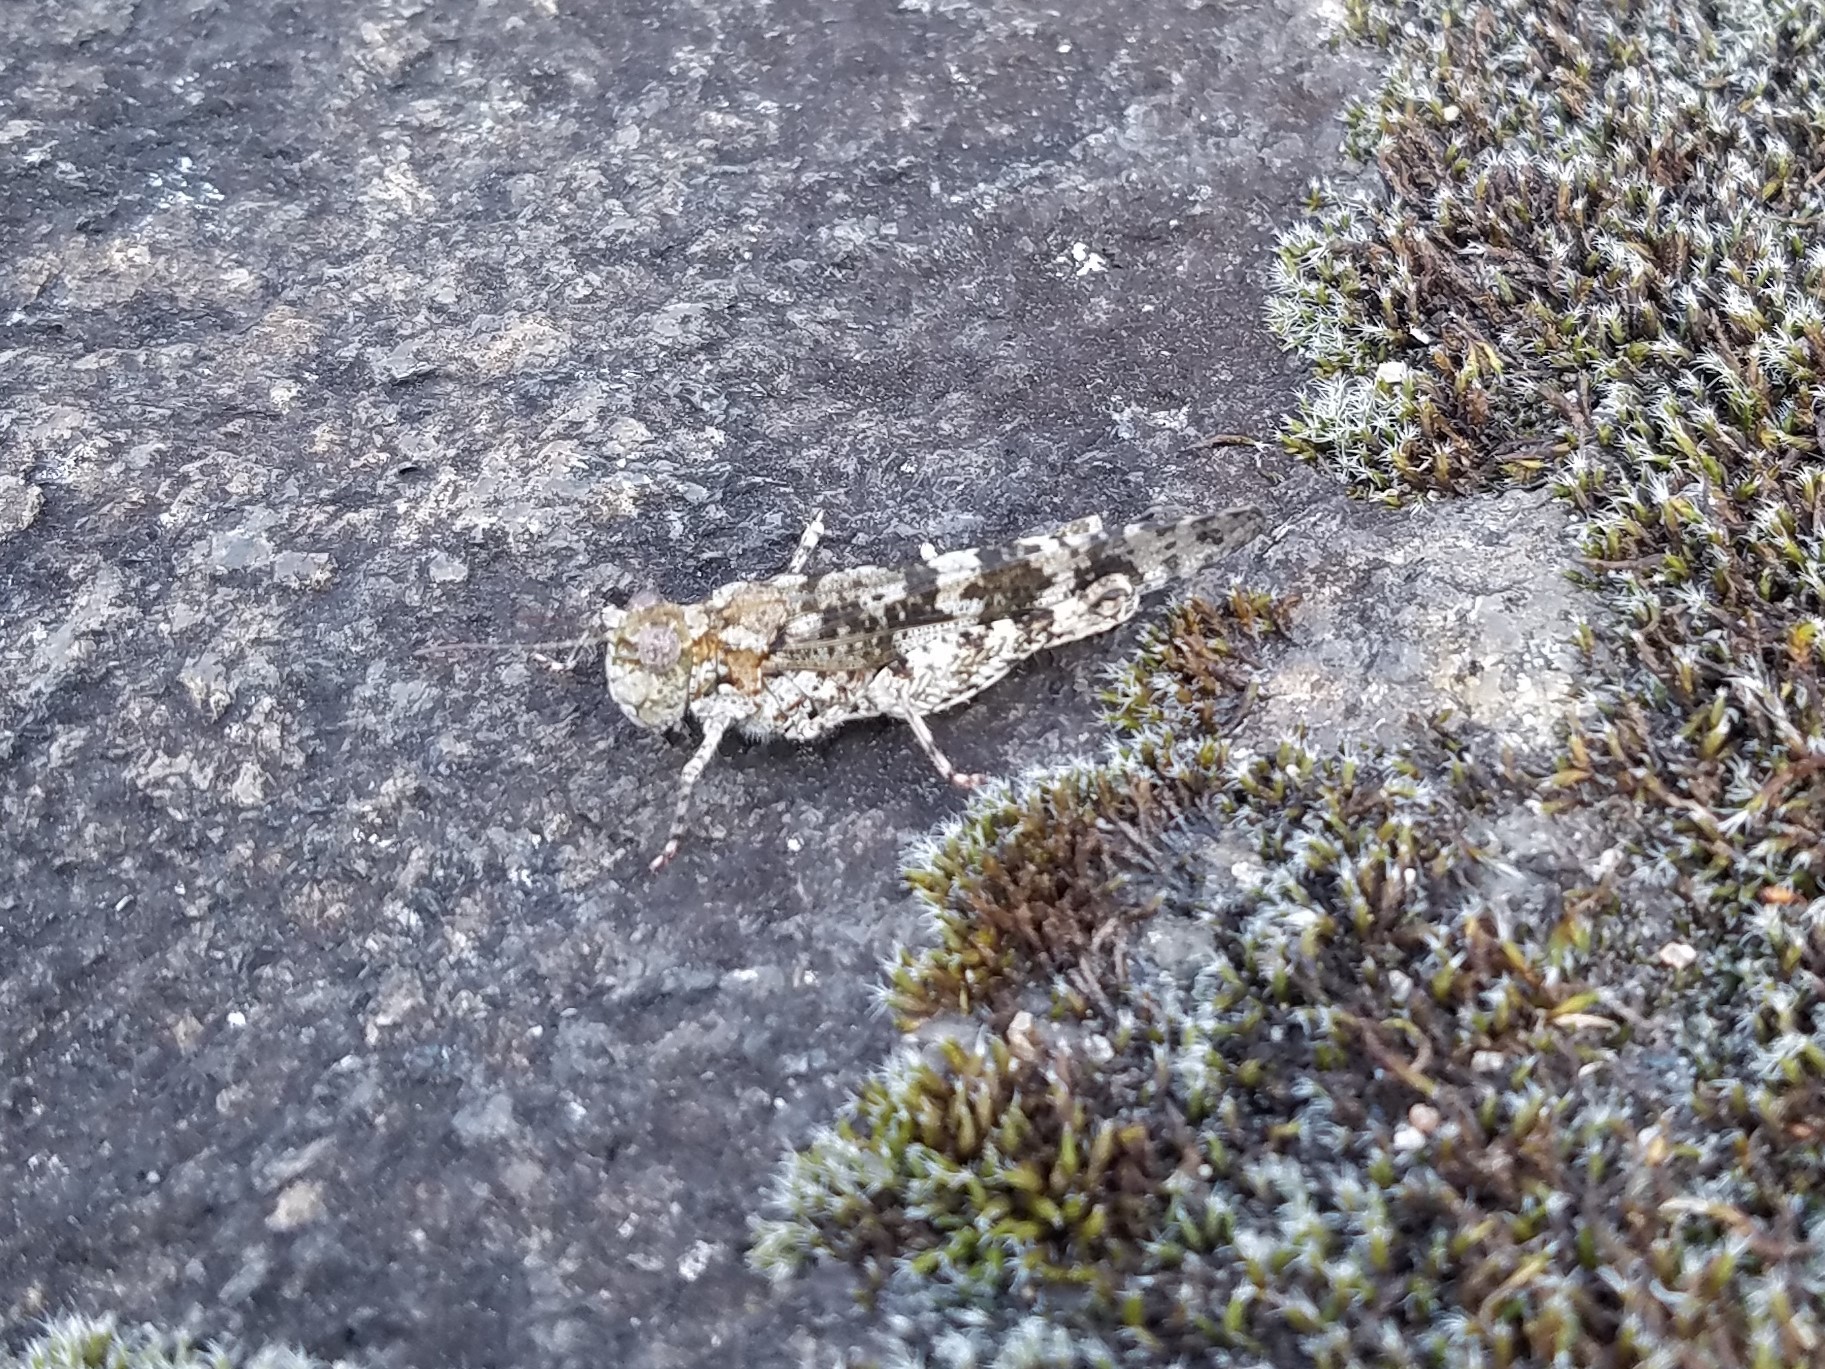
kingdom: Animalia
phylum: Arthropoda
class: Insecta
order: Orthoptera
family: Acrididae
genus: Trimerotropis
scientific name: Trimerotropis saxatilis
